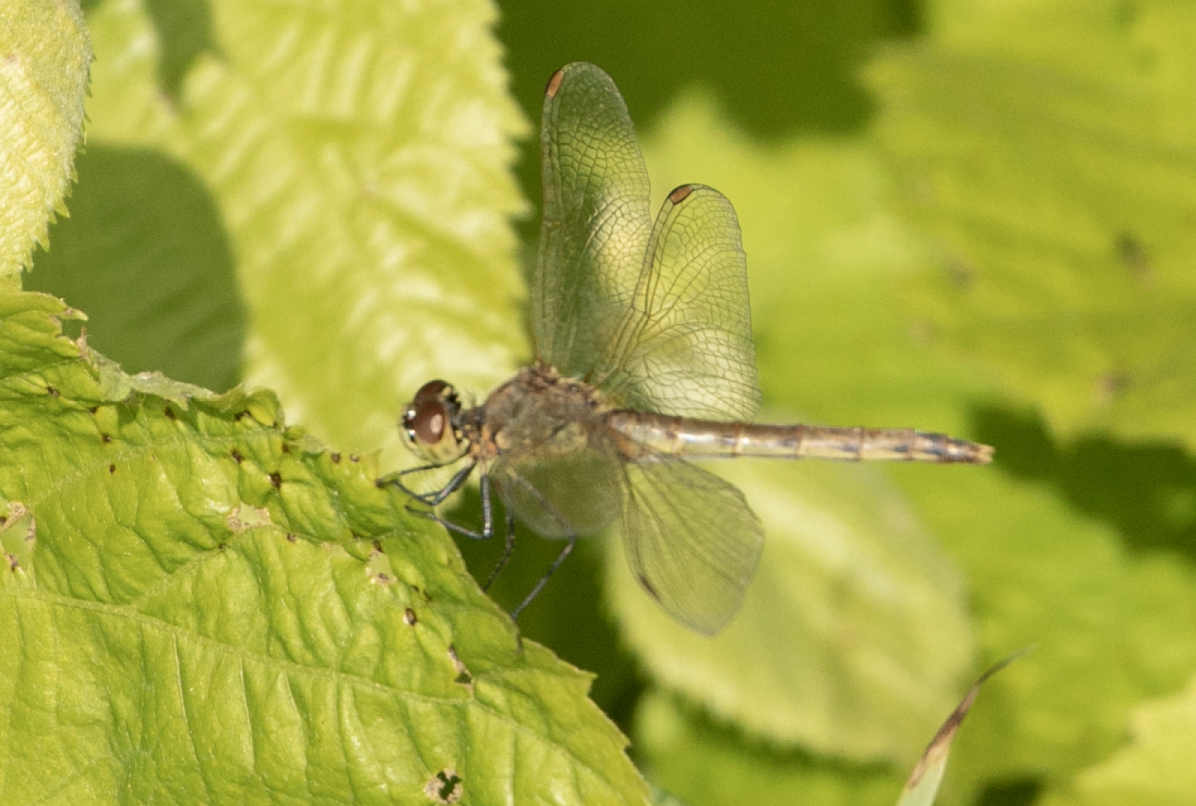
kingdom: Animalia
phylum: Arthropoda
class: Insecta
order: Odonata
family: Libellulidae
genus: Sympetrum
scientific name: Sympetrum depressiusculum
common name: Spotted darter
